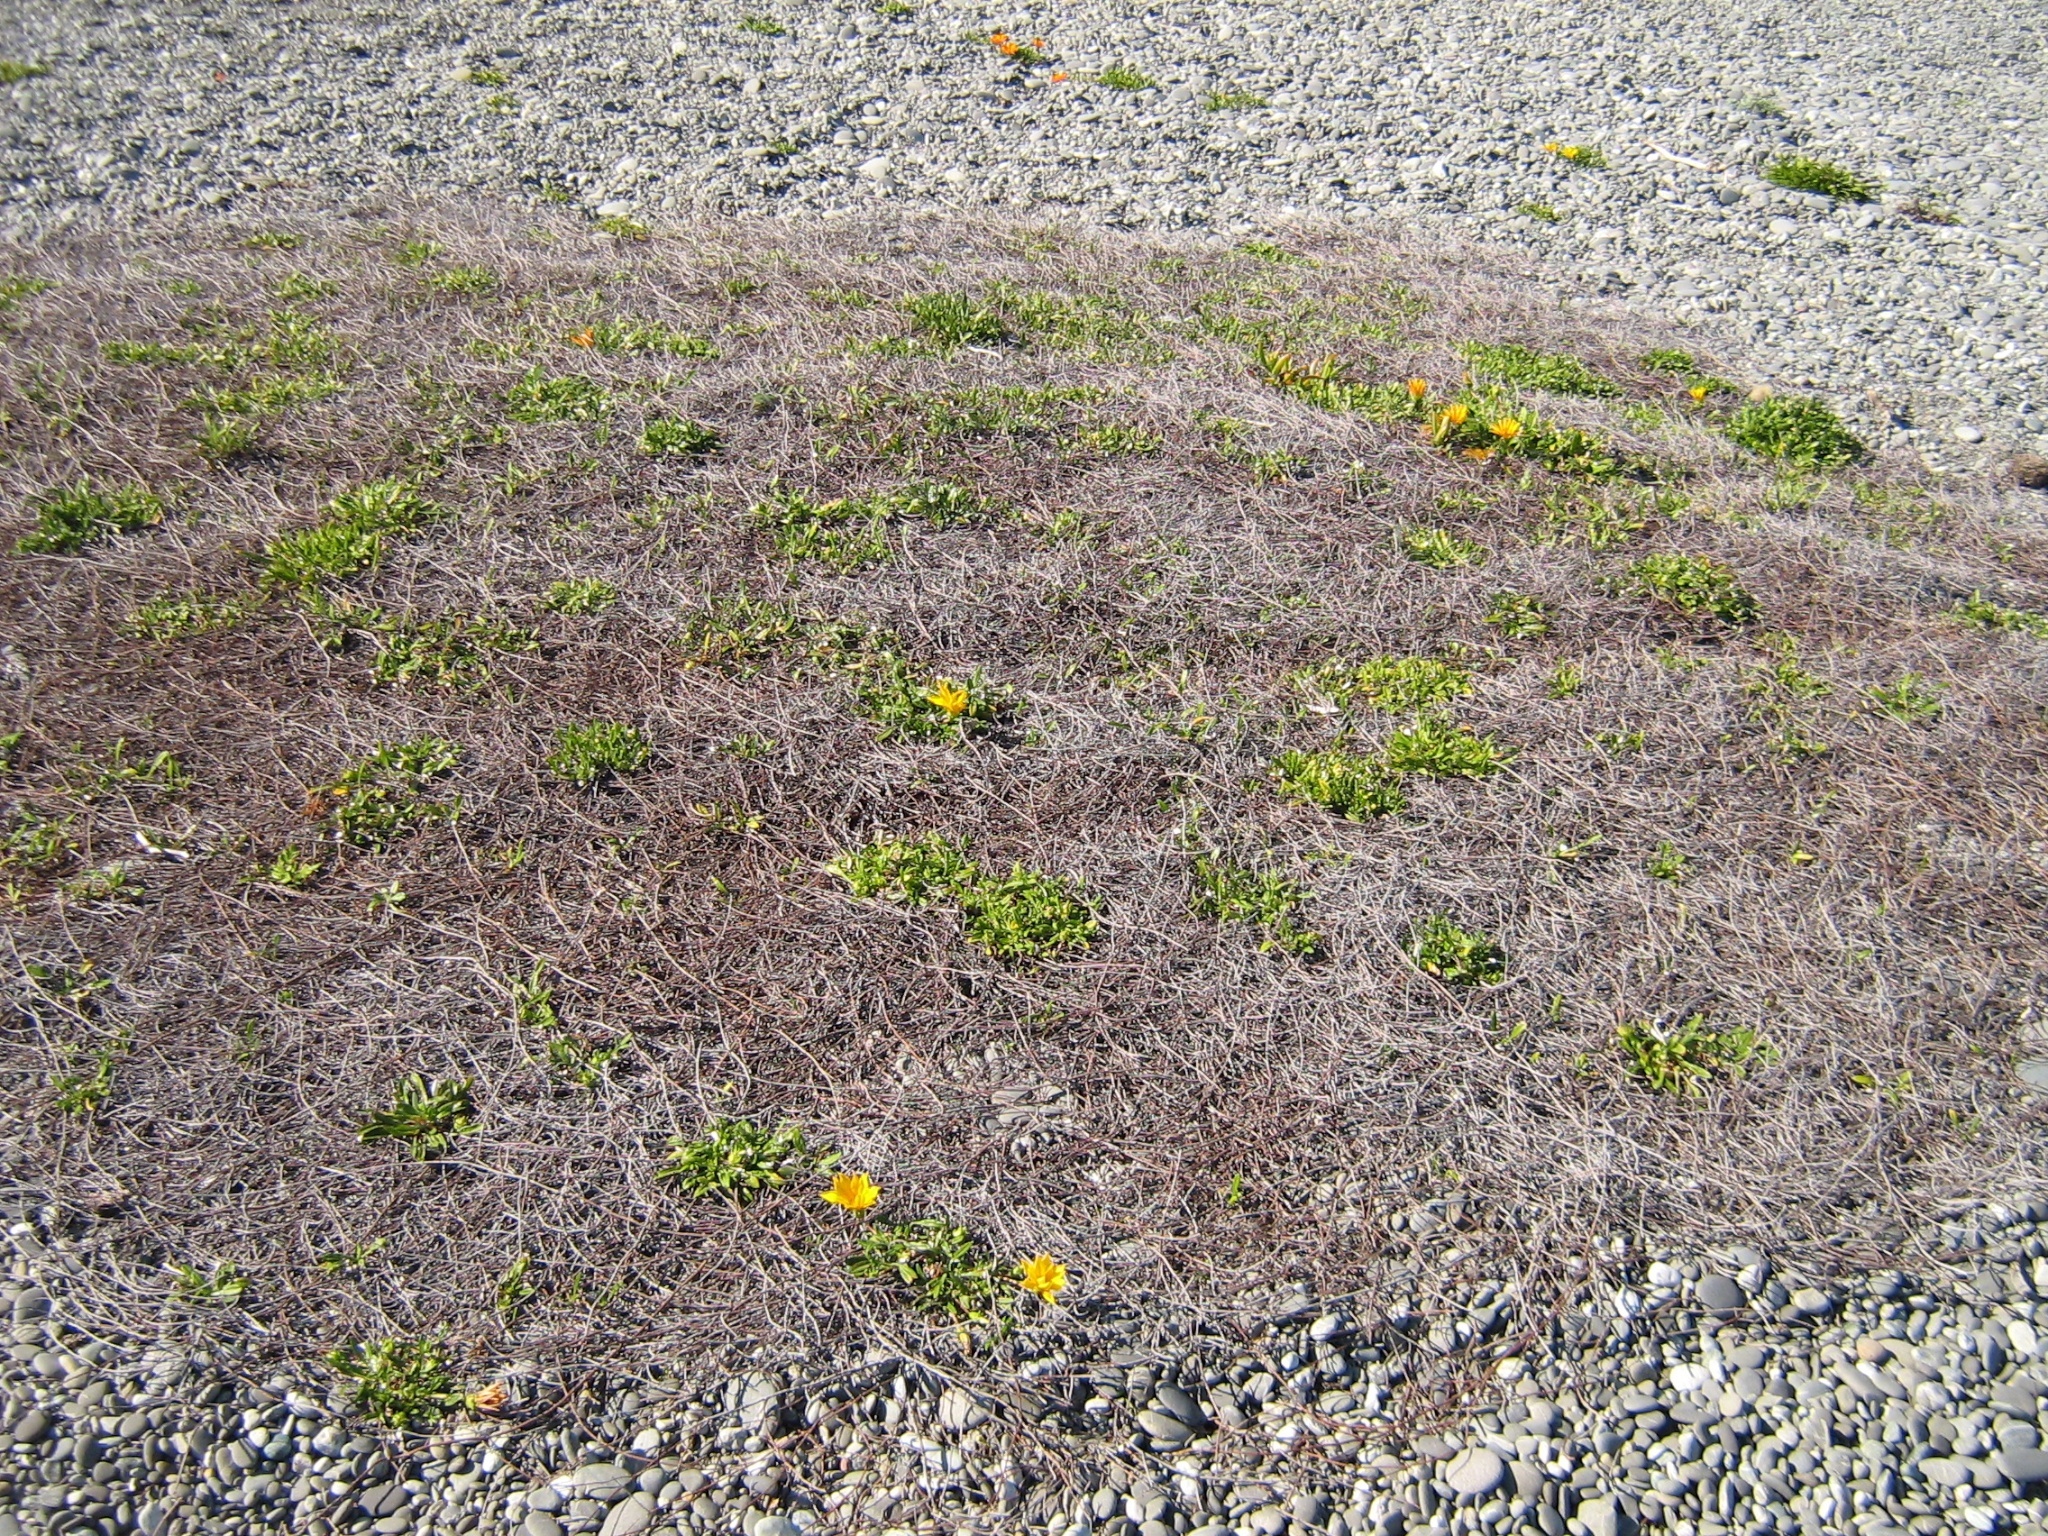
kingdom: Plantae
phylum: Tracheophyta
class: Magnoliopsida
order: Caryophyllales
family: Polygonaceae
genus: Muehlenbeckia
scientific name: Muehlenbeckia ephedroides
